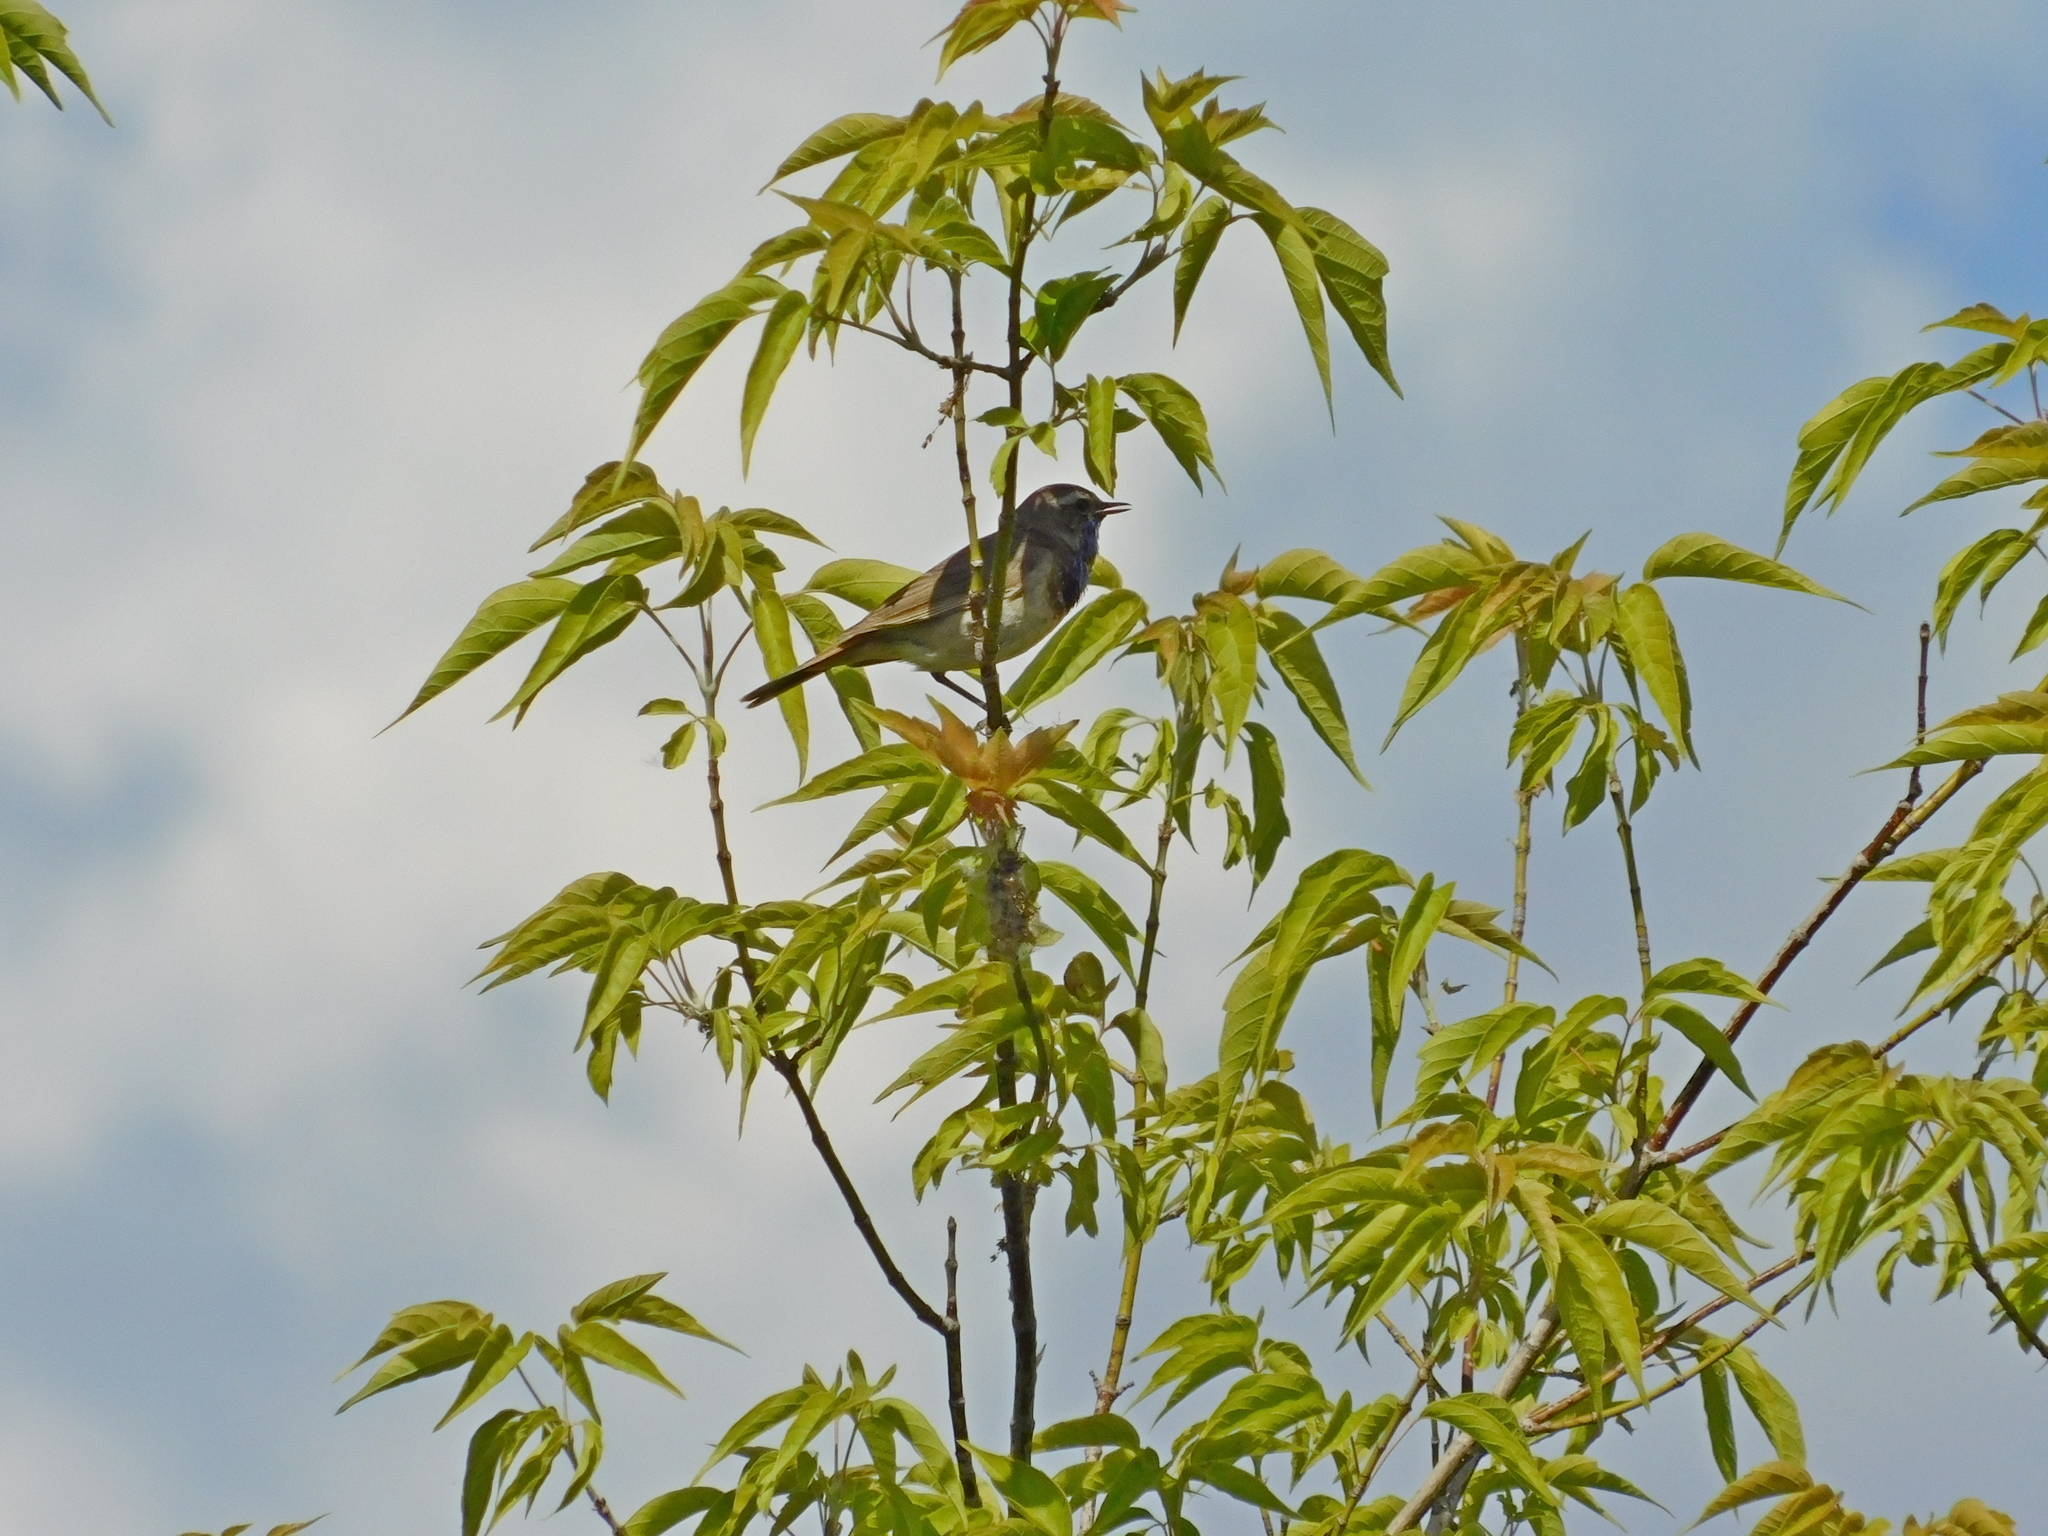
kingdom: Animalia
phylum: Chordata
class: Aves
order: Passeriformes
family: Muscicapidae
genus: Luscinia
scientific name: Luscinia svecica
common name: Bluethroat
